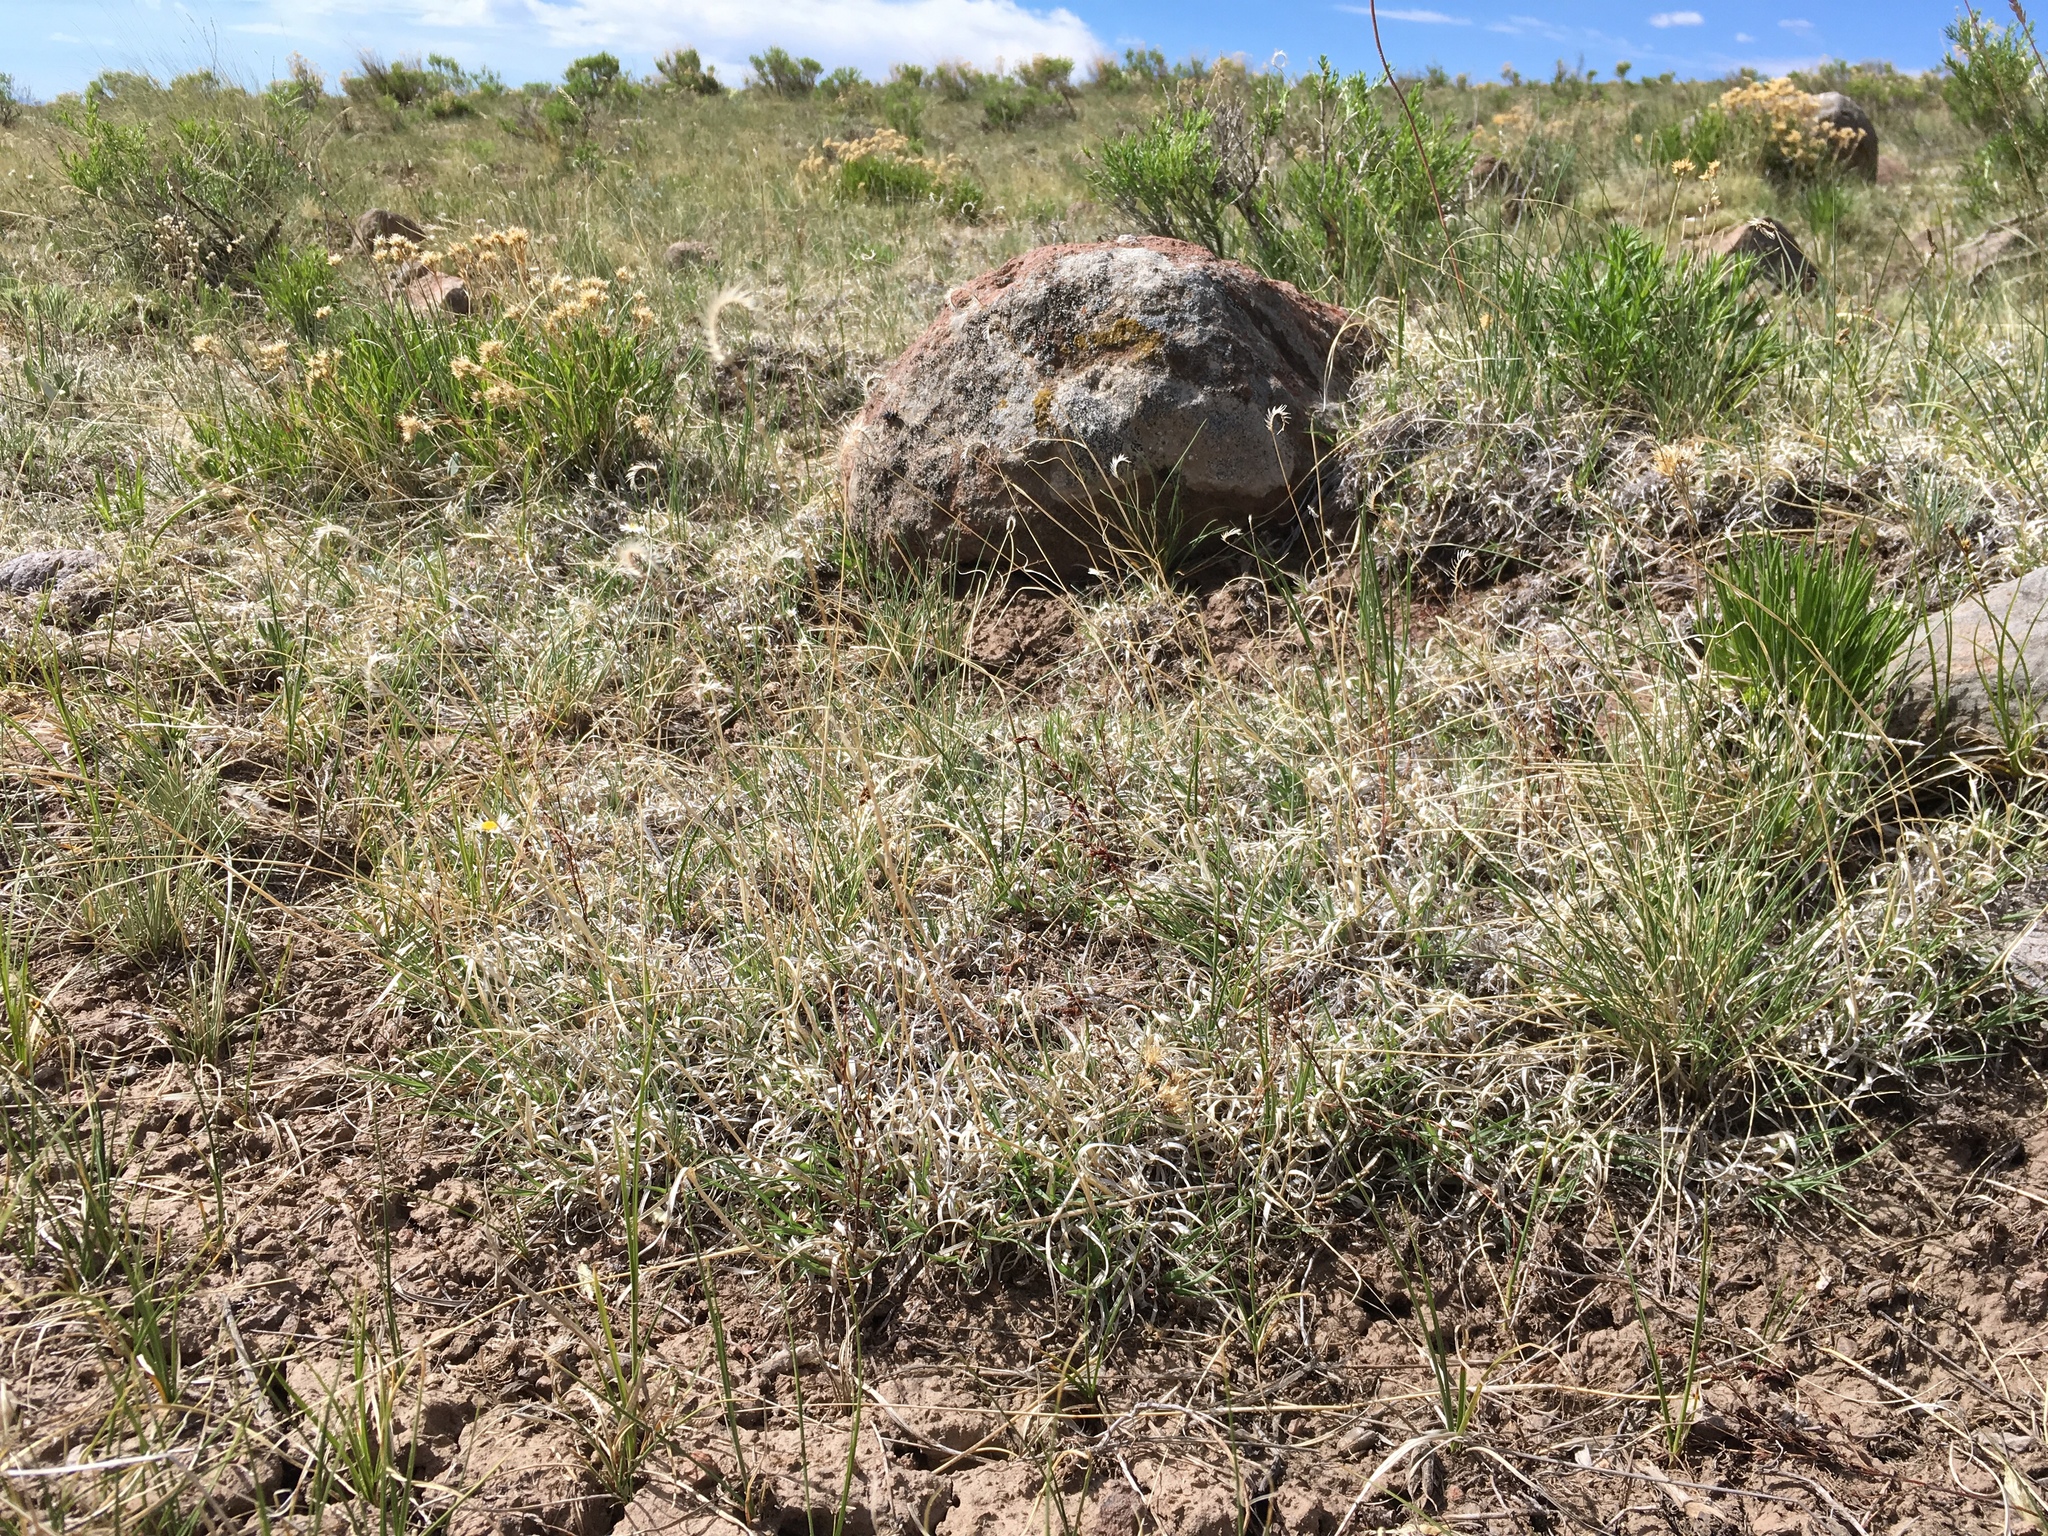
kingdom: Plantae
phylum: Tracheophyta
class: Liliopsida
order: Poales
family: Poaceae
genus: Bouteloua
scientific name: Bouteloua gracilis
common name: Blue grama
